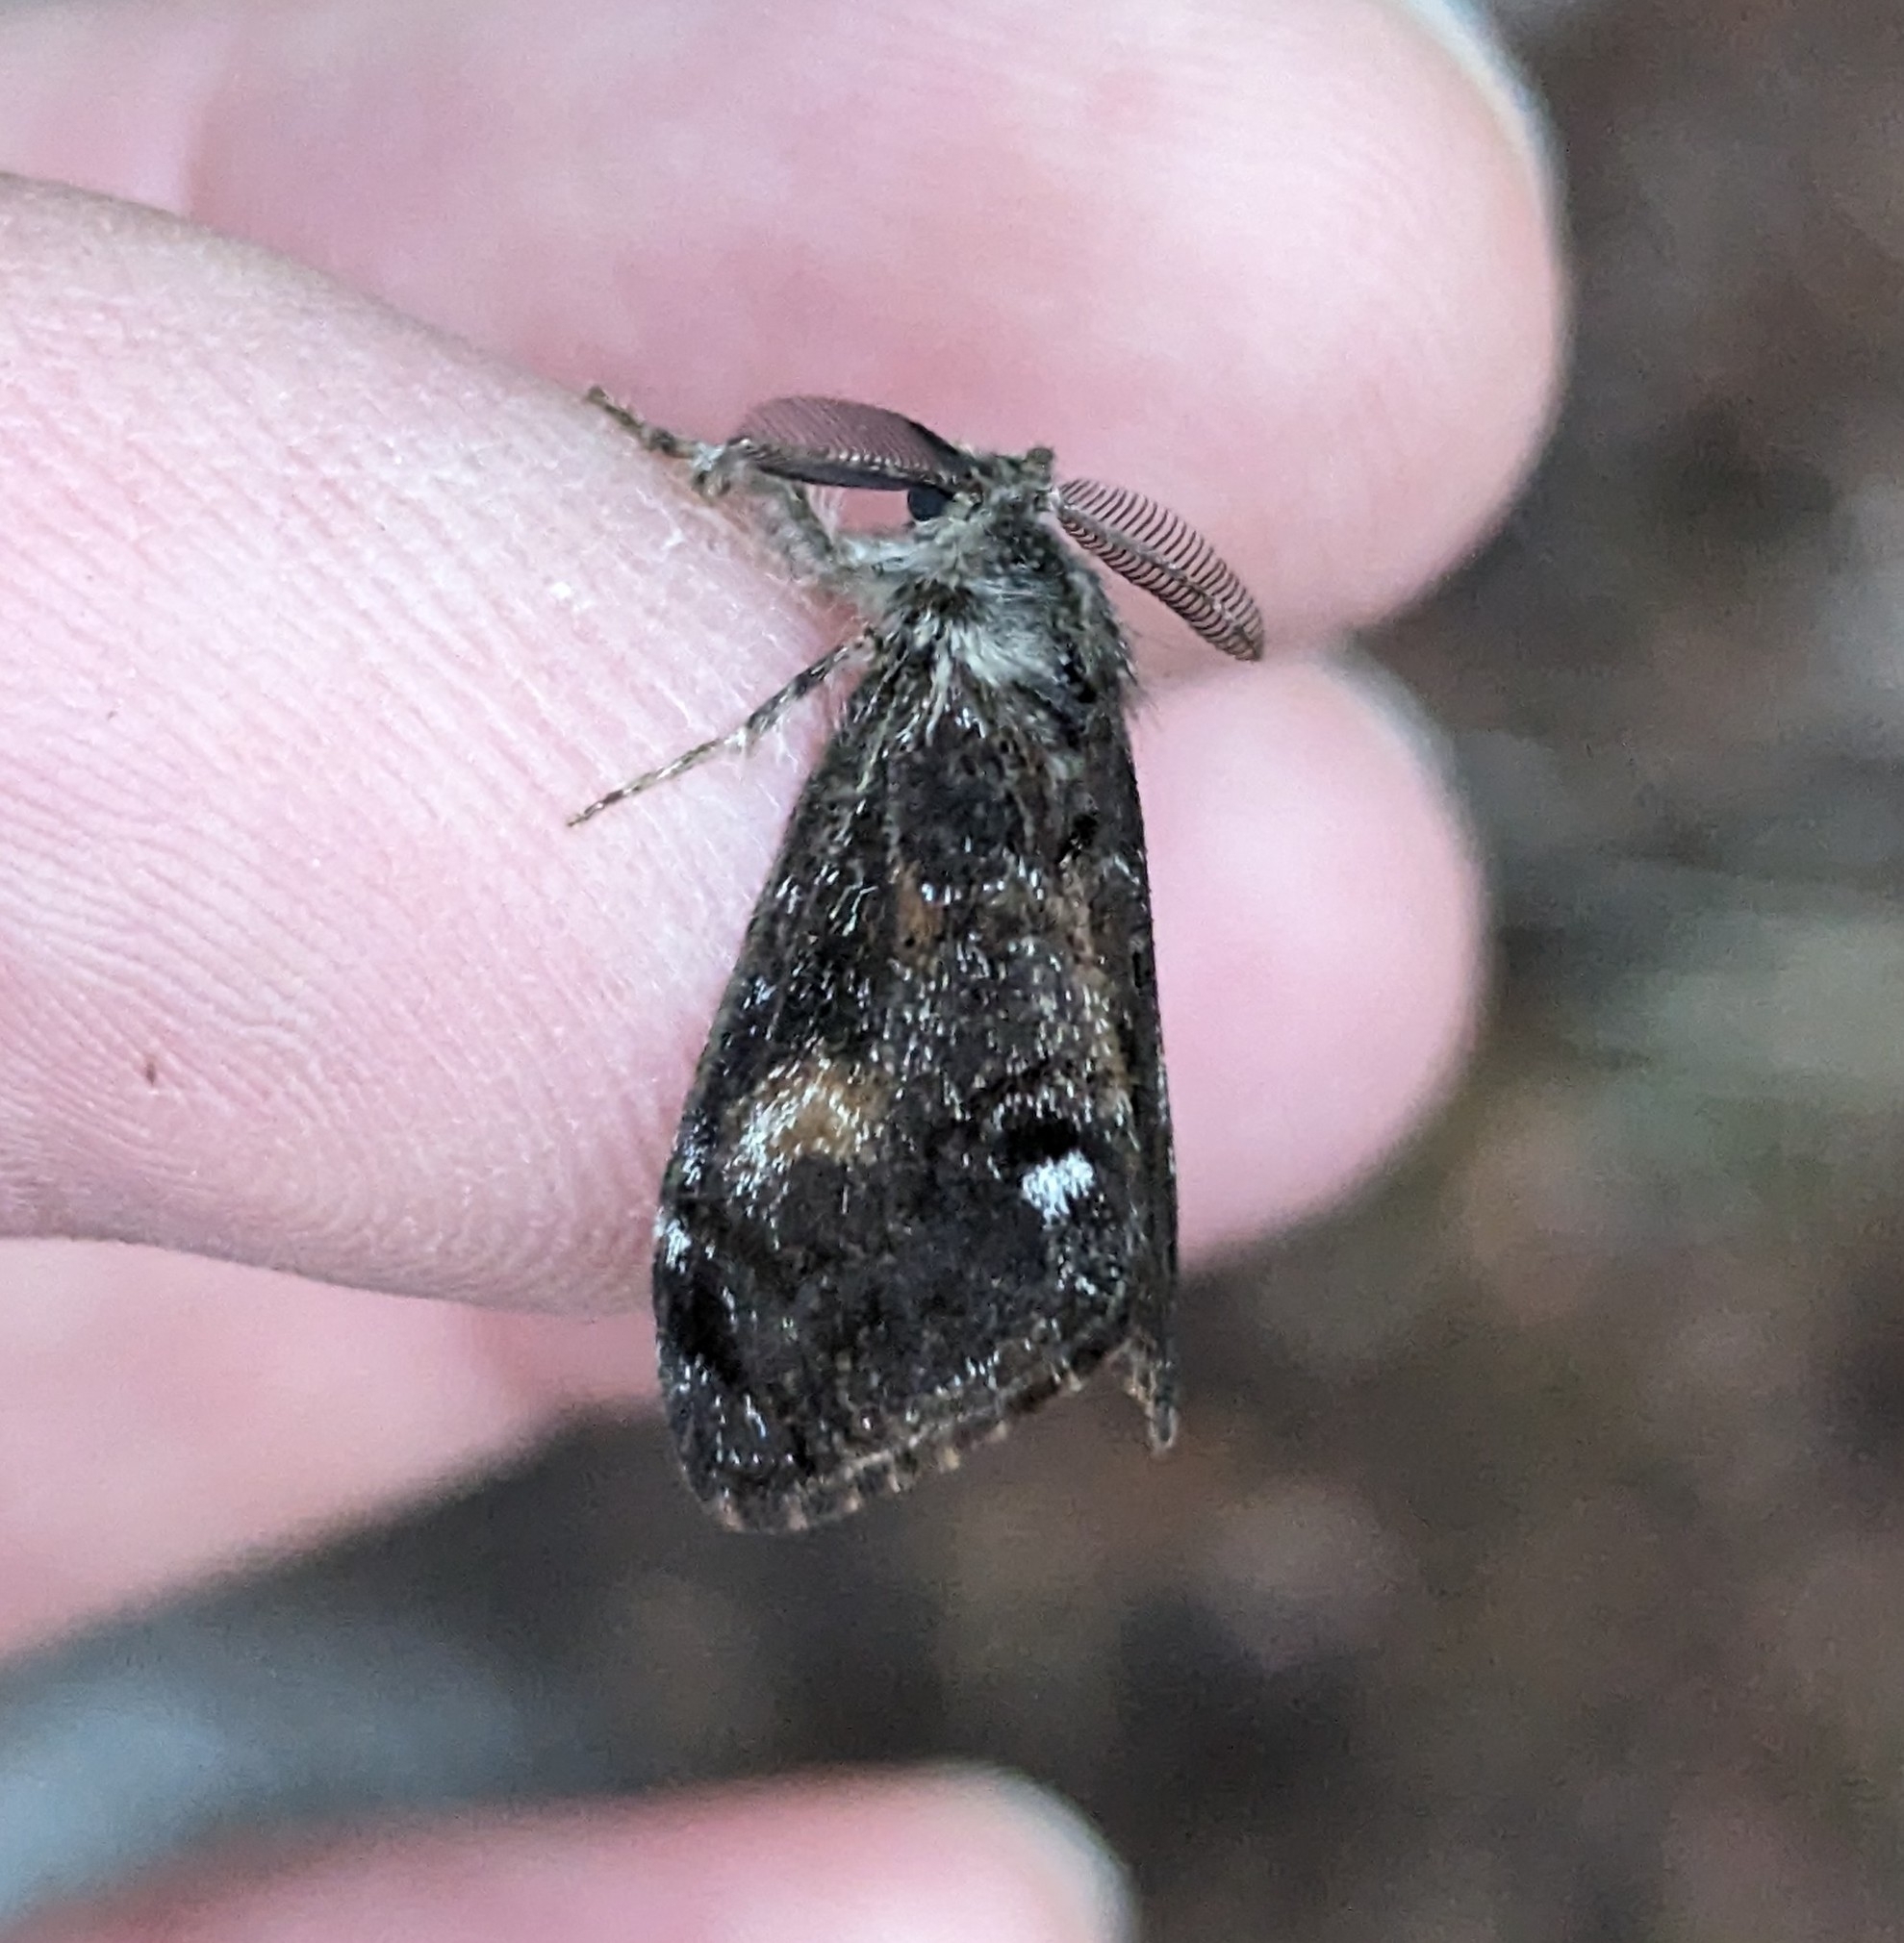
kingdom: Animalia
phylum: Arthropoda
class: Insecta
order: Lepidoptera
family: Erebidae
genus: Orgyia
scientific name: Orgyia pseudotsugata
